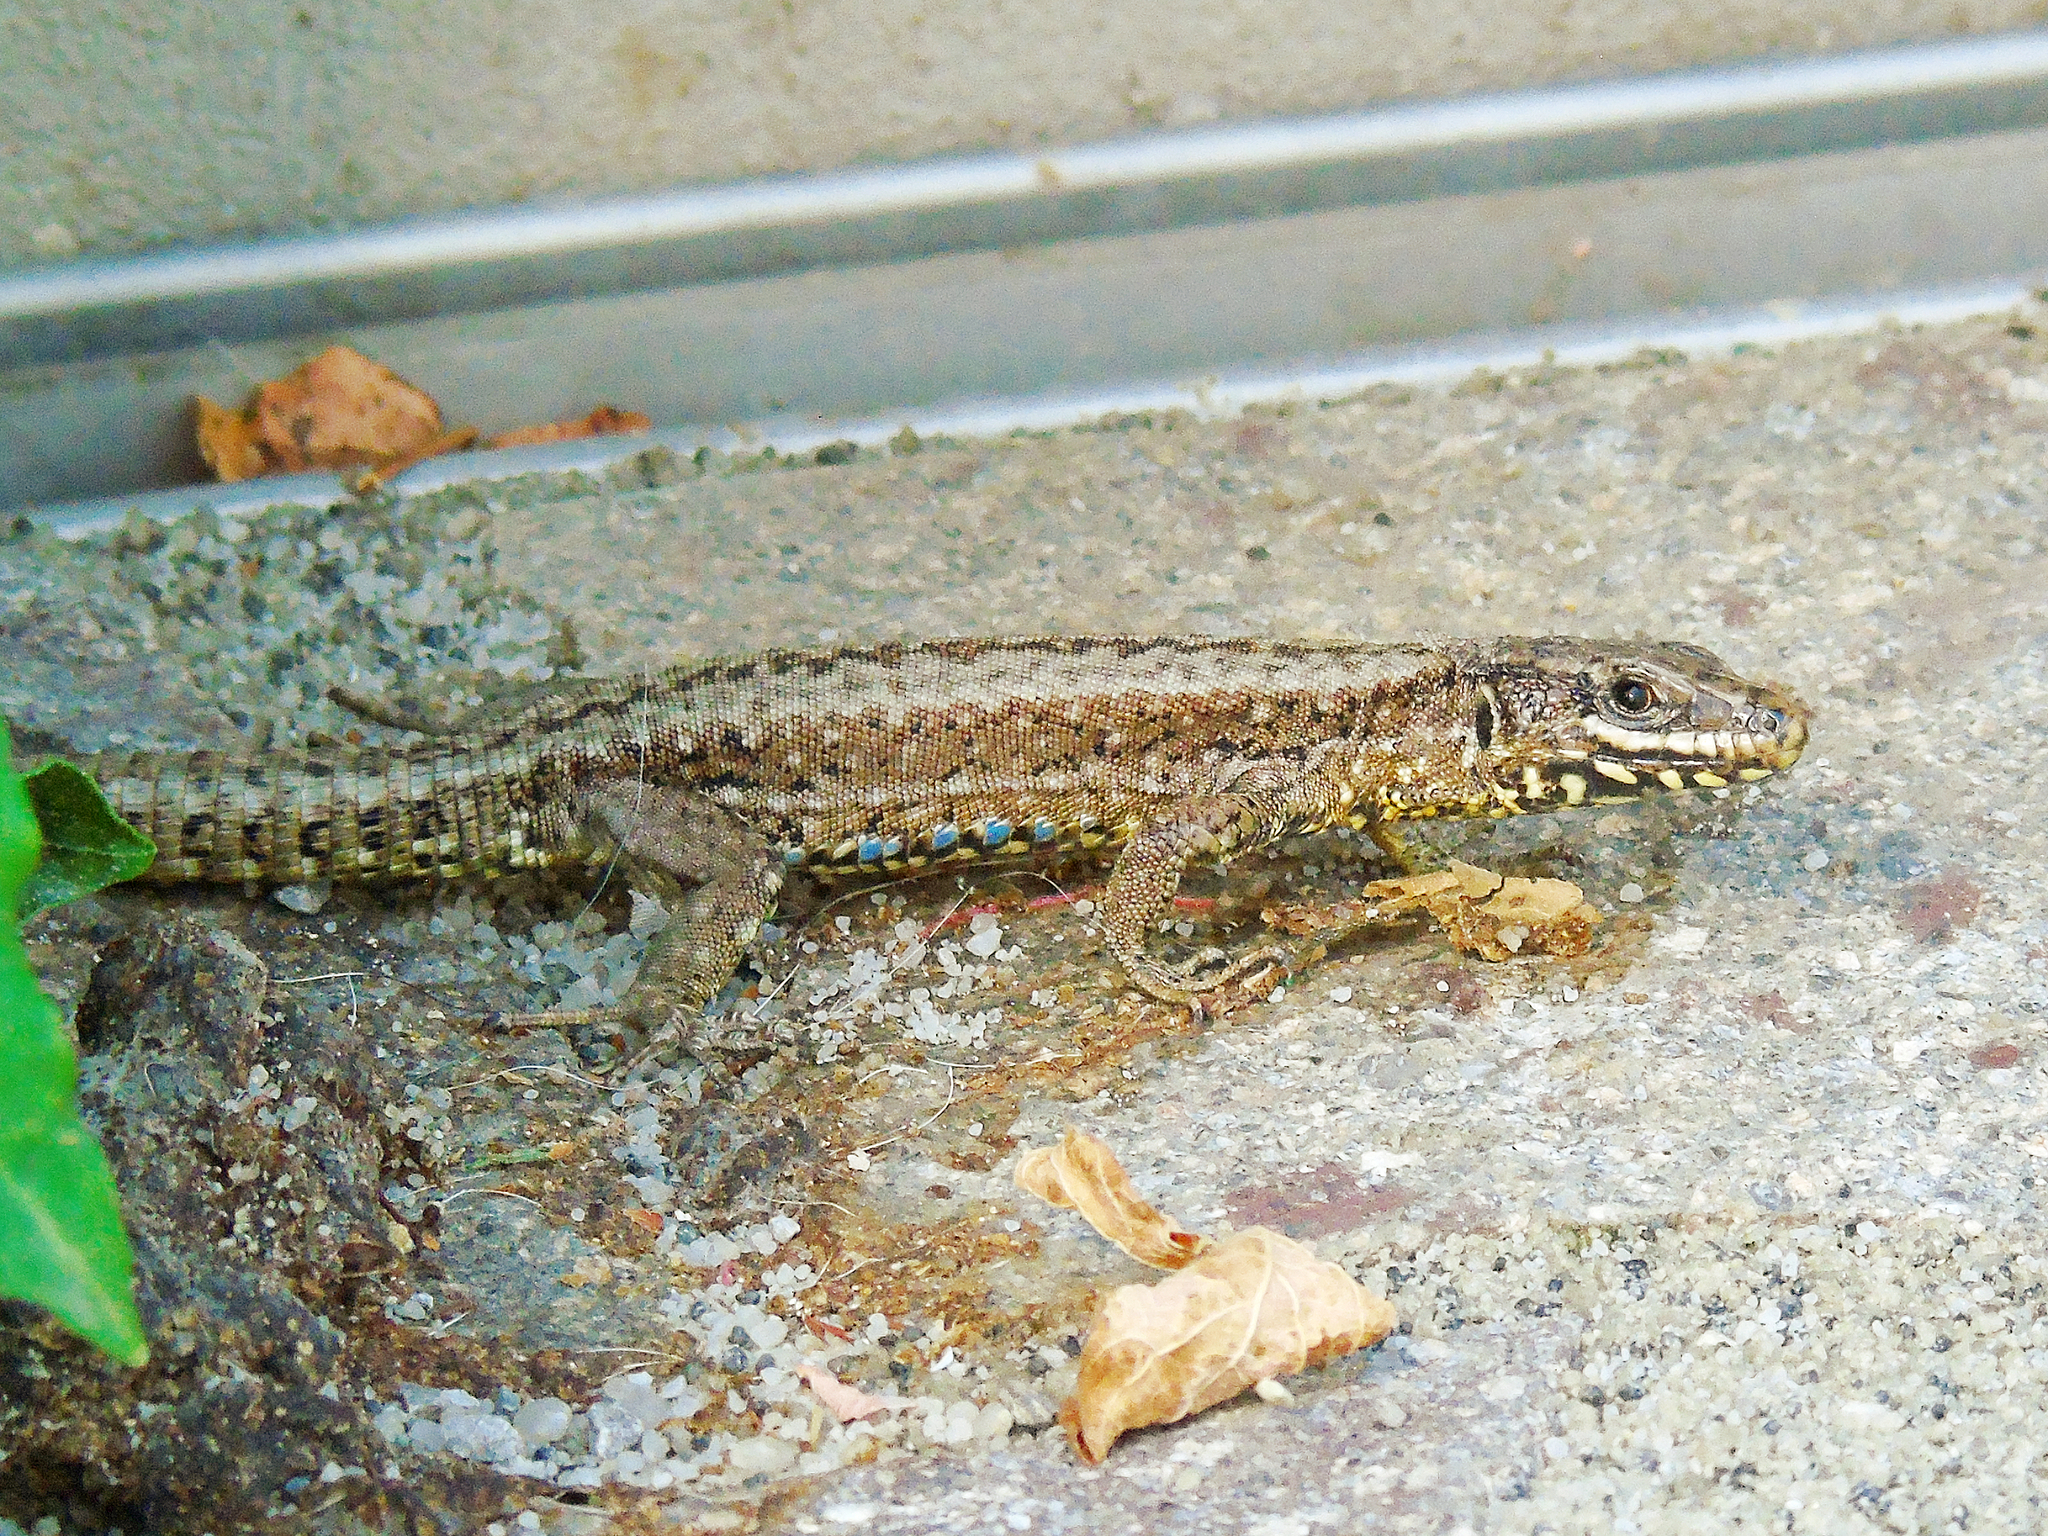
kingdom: Animalia
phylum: Chordata
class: Squamata
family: Lacertidae
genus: Podarcis
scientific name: Podarcis muralis
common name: Common wall lizard
